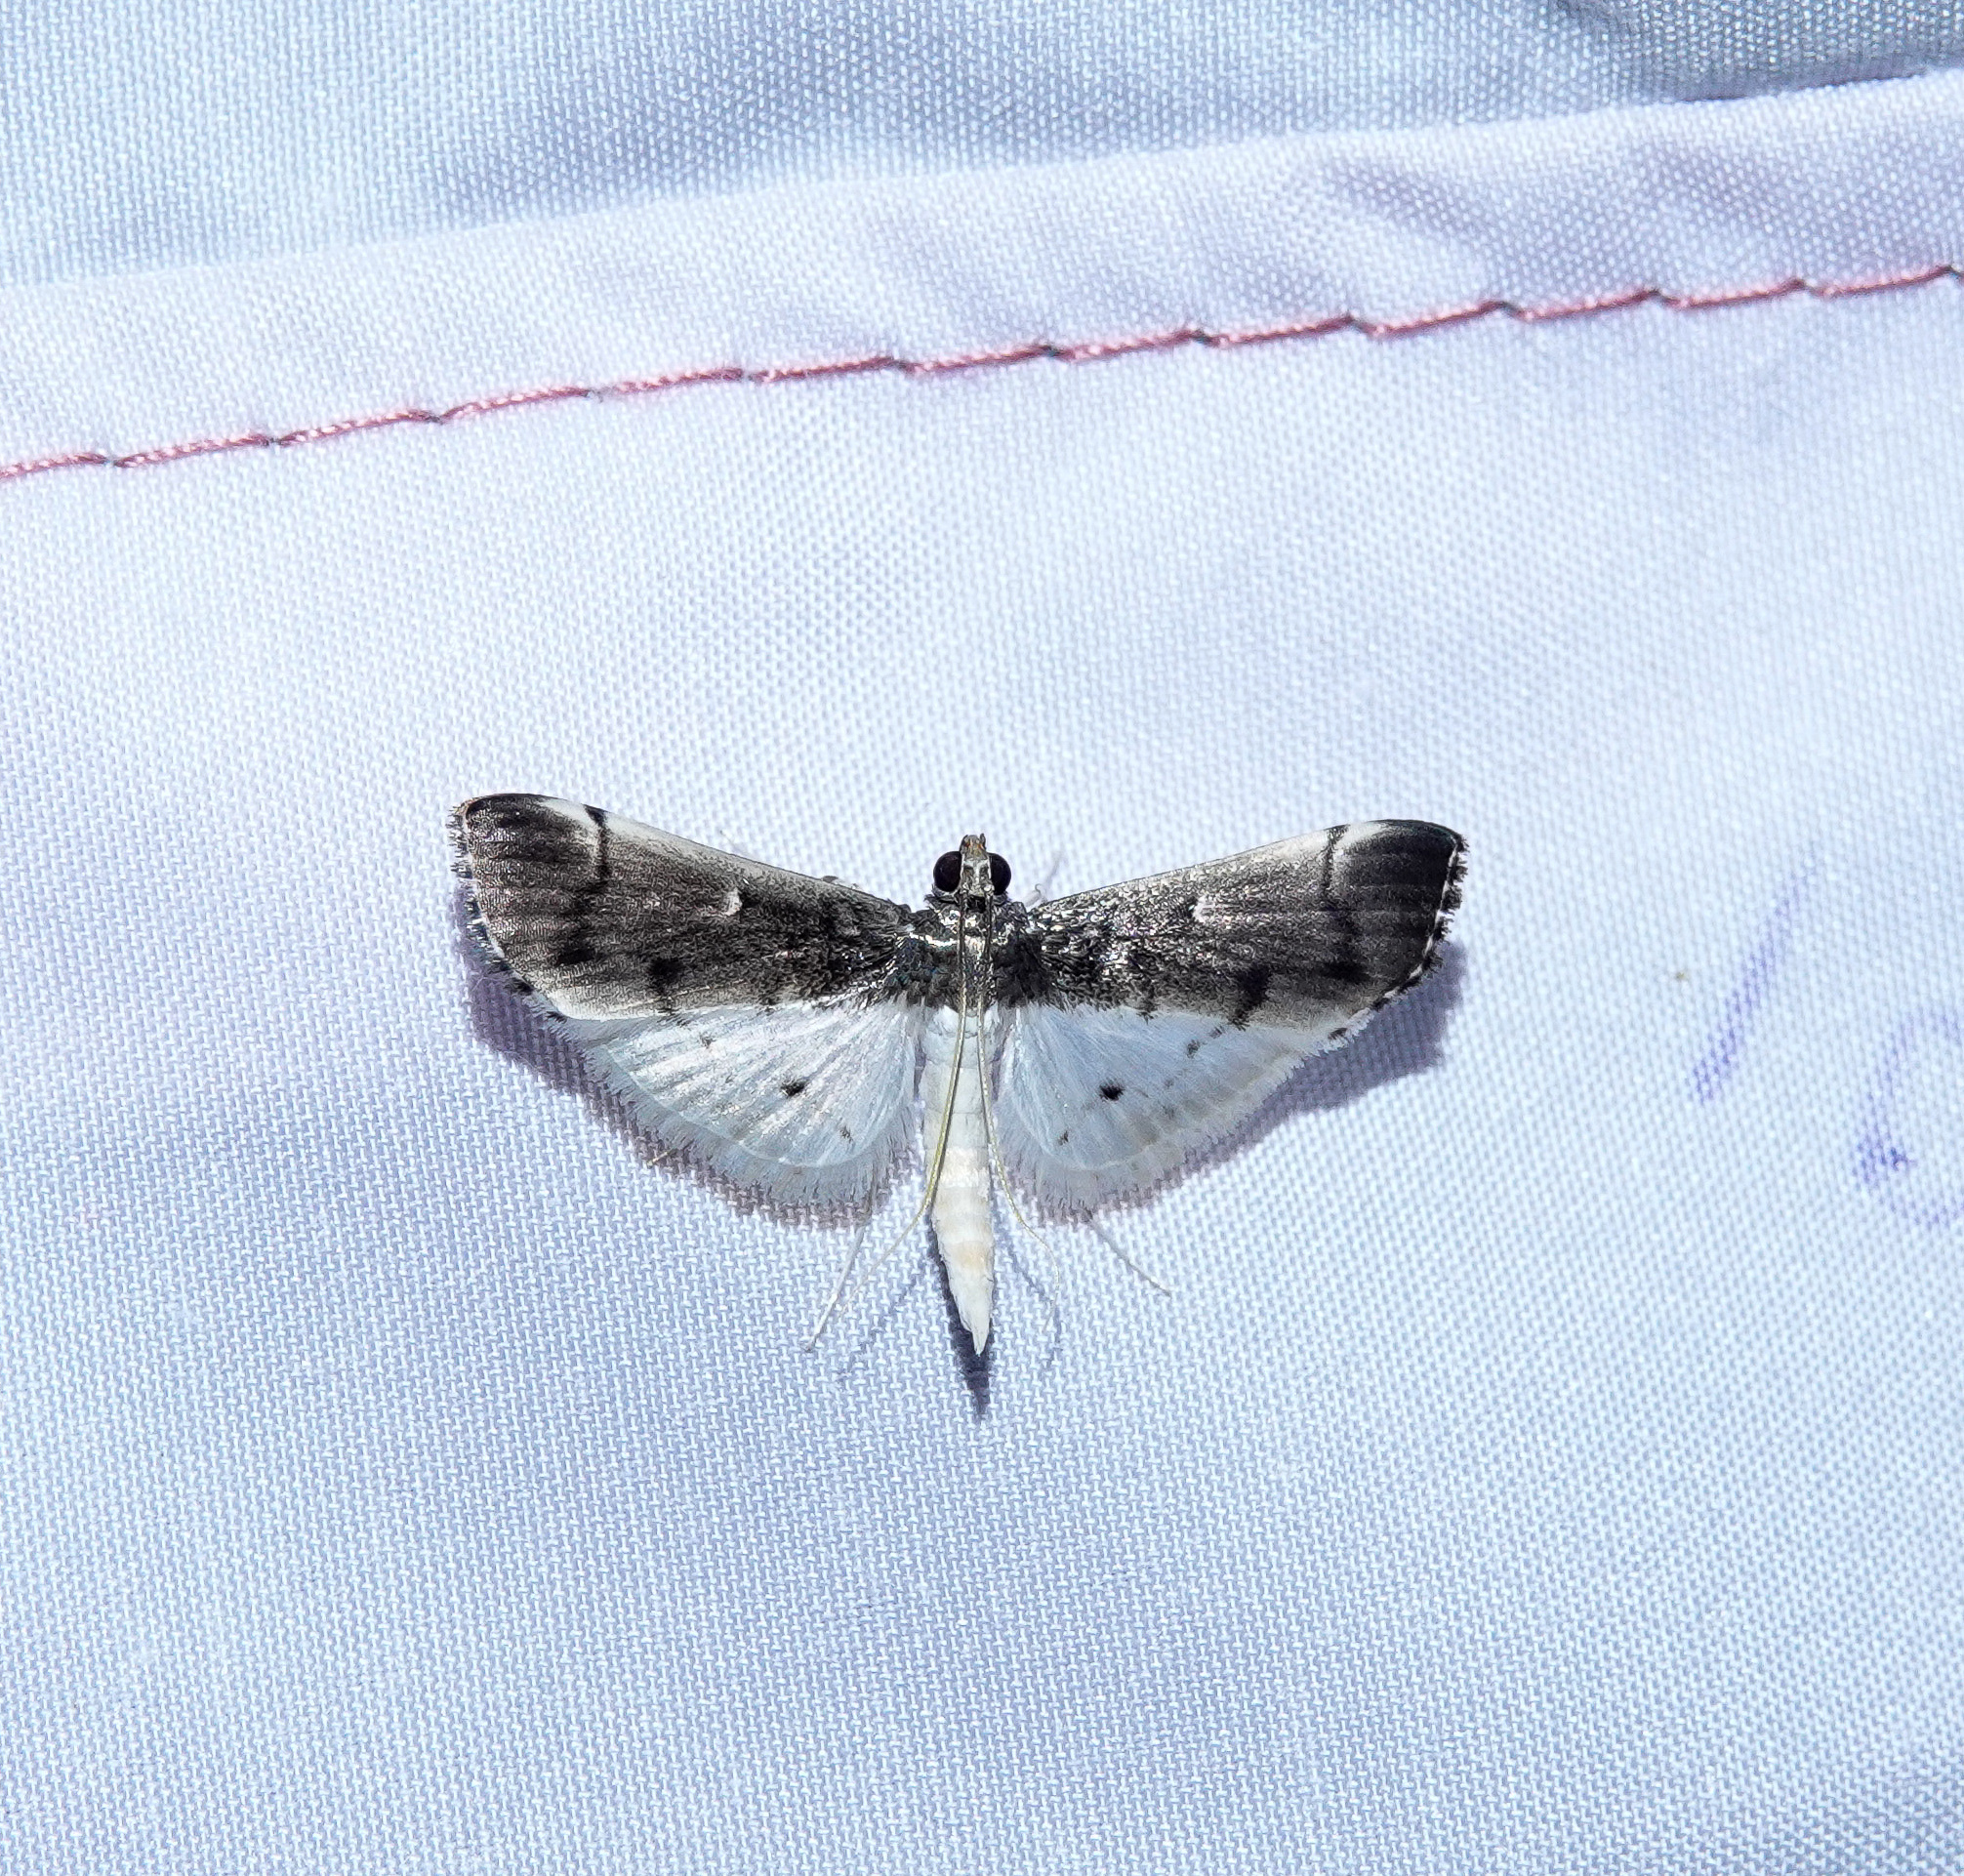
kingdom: Animalia
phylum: Arthropoda
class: Insecta
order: Lepidoptera
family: Crambidae
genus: Orphnophanes
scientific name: Orphnophanes eucerusalis
